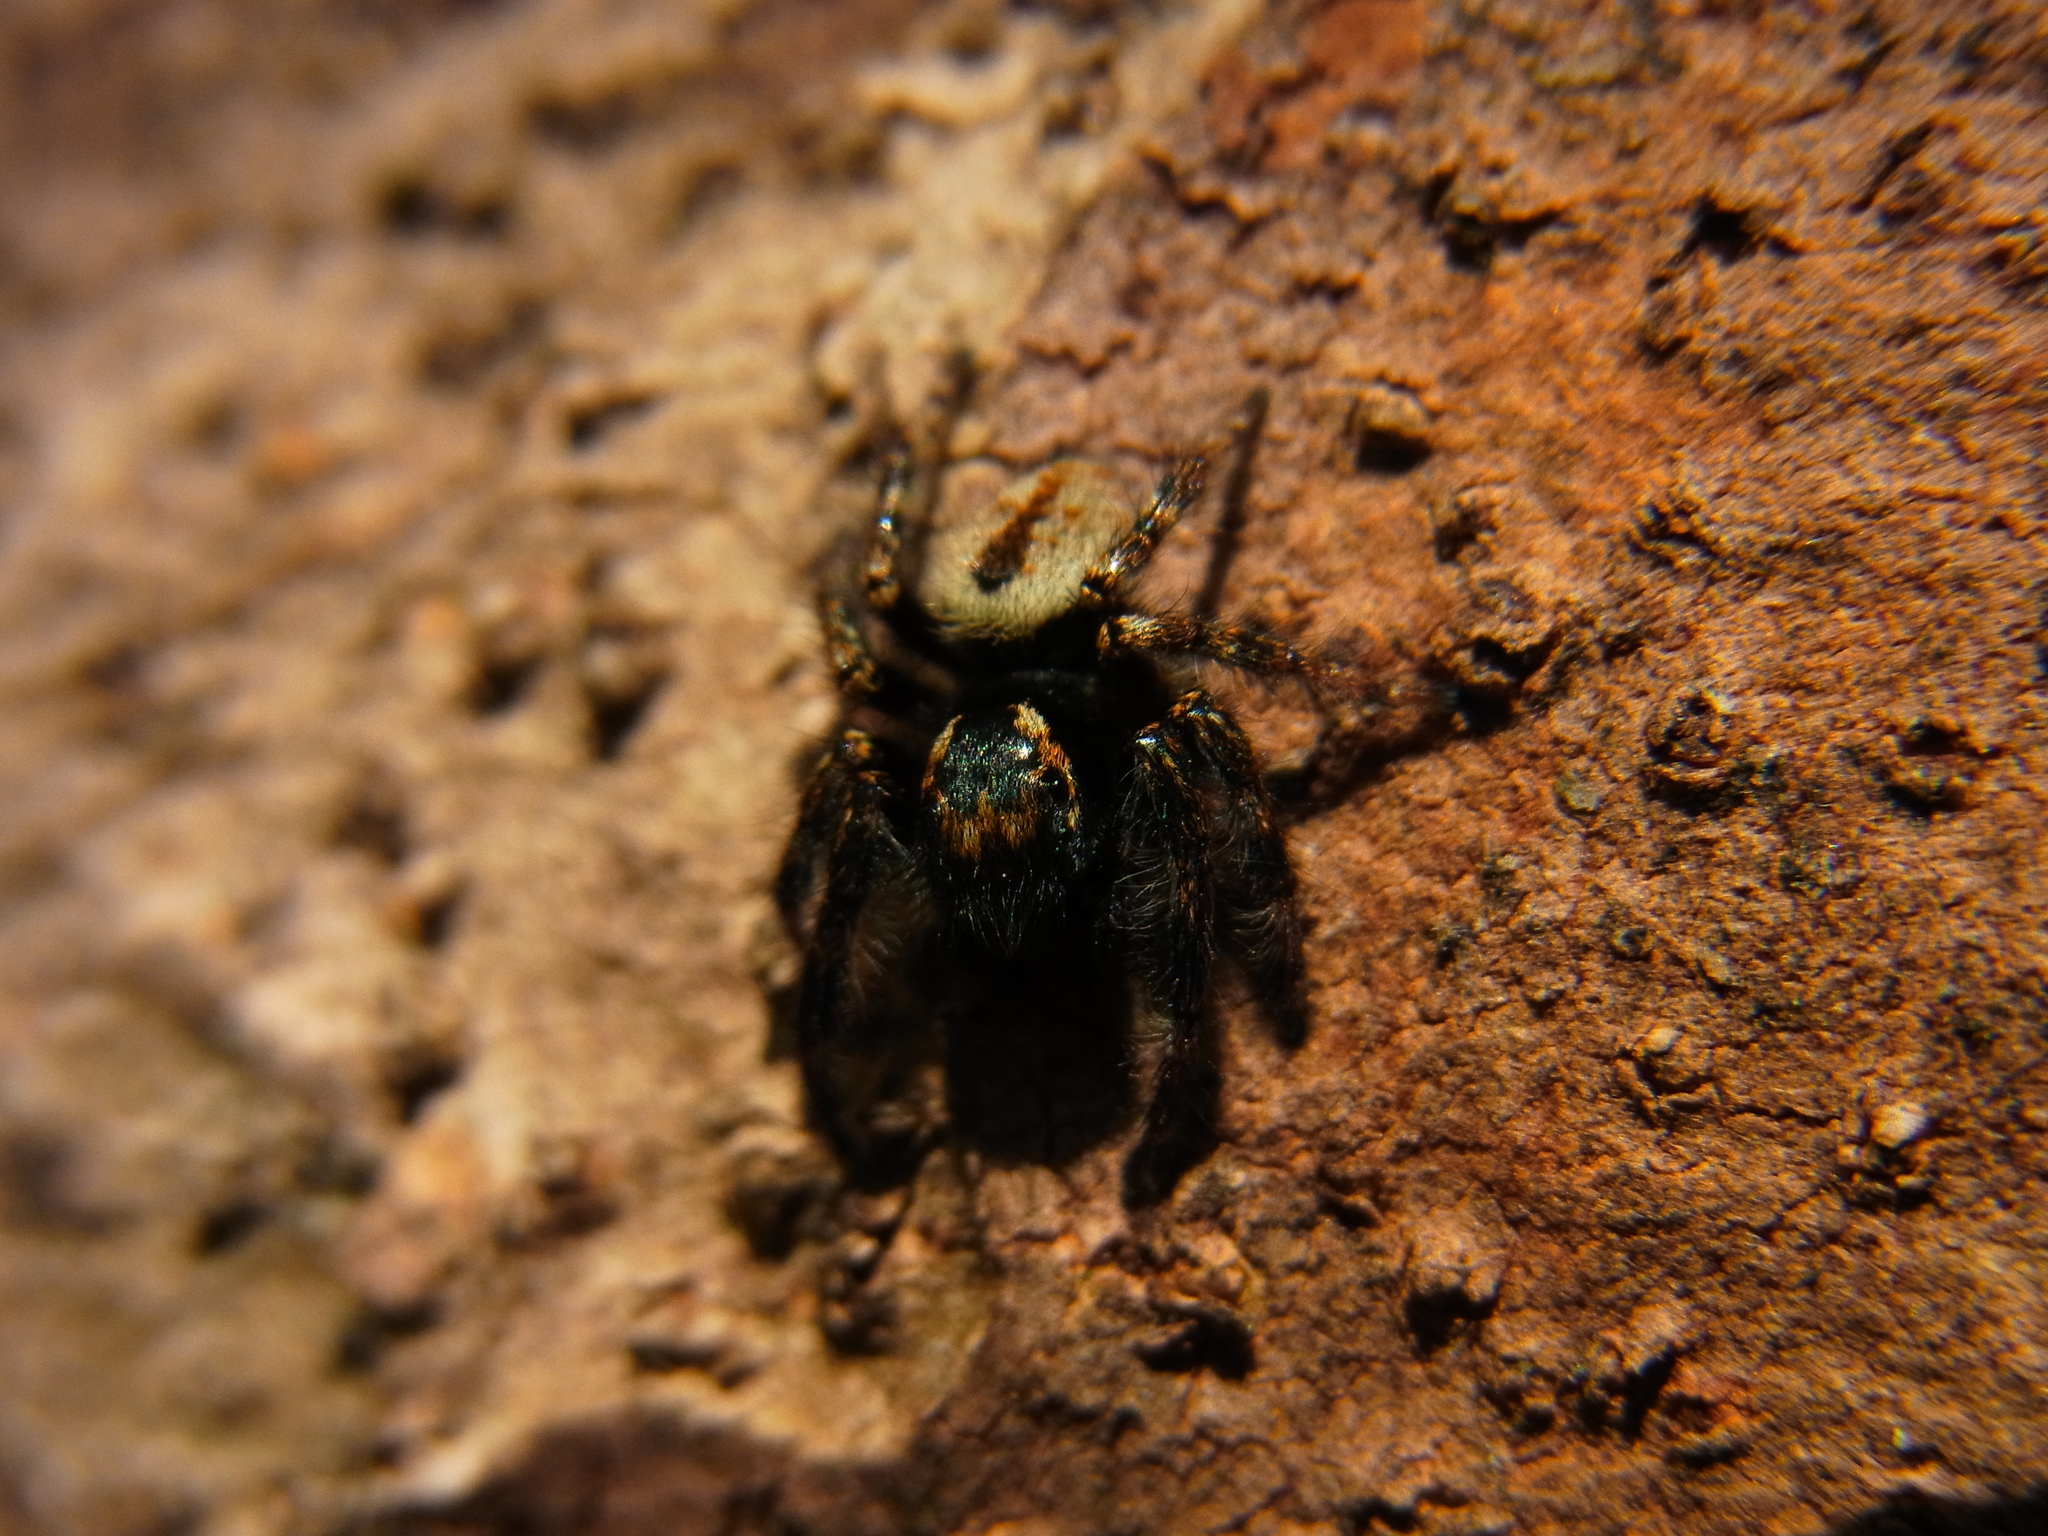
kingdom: Animalia
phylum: Arthropoda
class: Arachnida
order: Araneae
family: Salticidae
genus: Carrhotus
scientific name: Carrhotus xanthogramma
